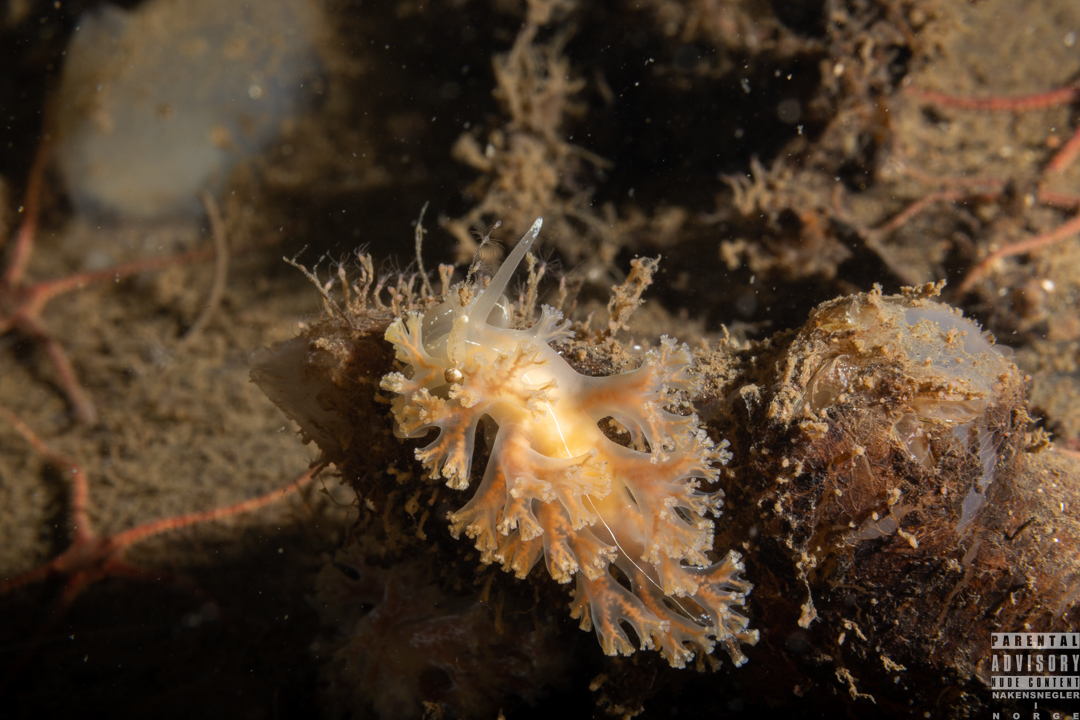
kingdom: Animalia
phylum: Mollusca
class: Gastropoda
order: Nudibranchia
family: Heroidae
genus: Hero
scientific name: Hero formosa
